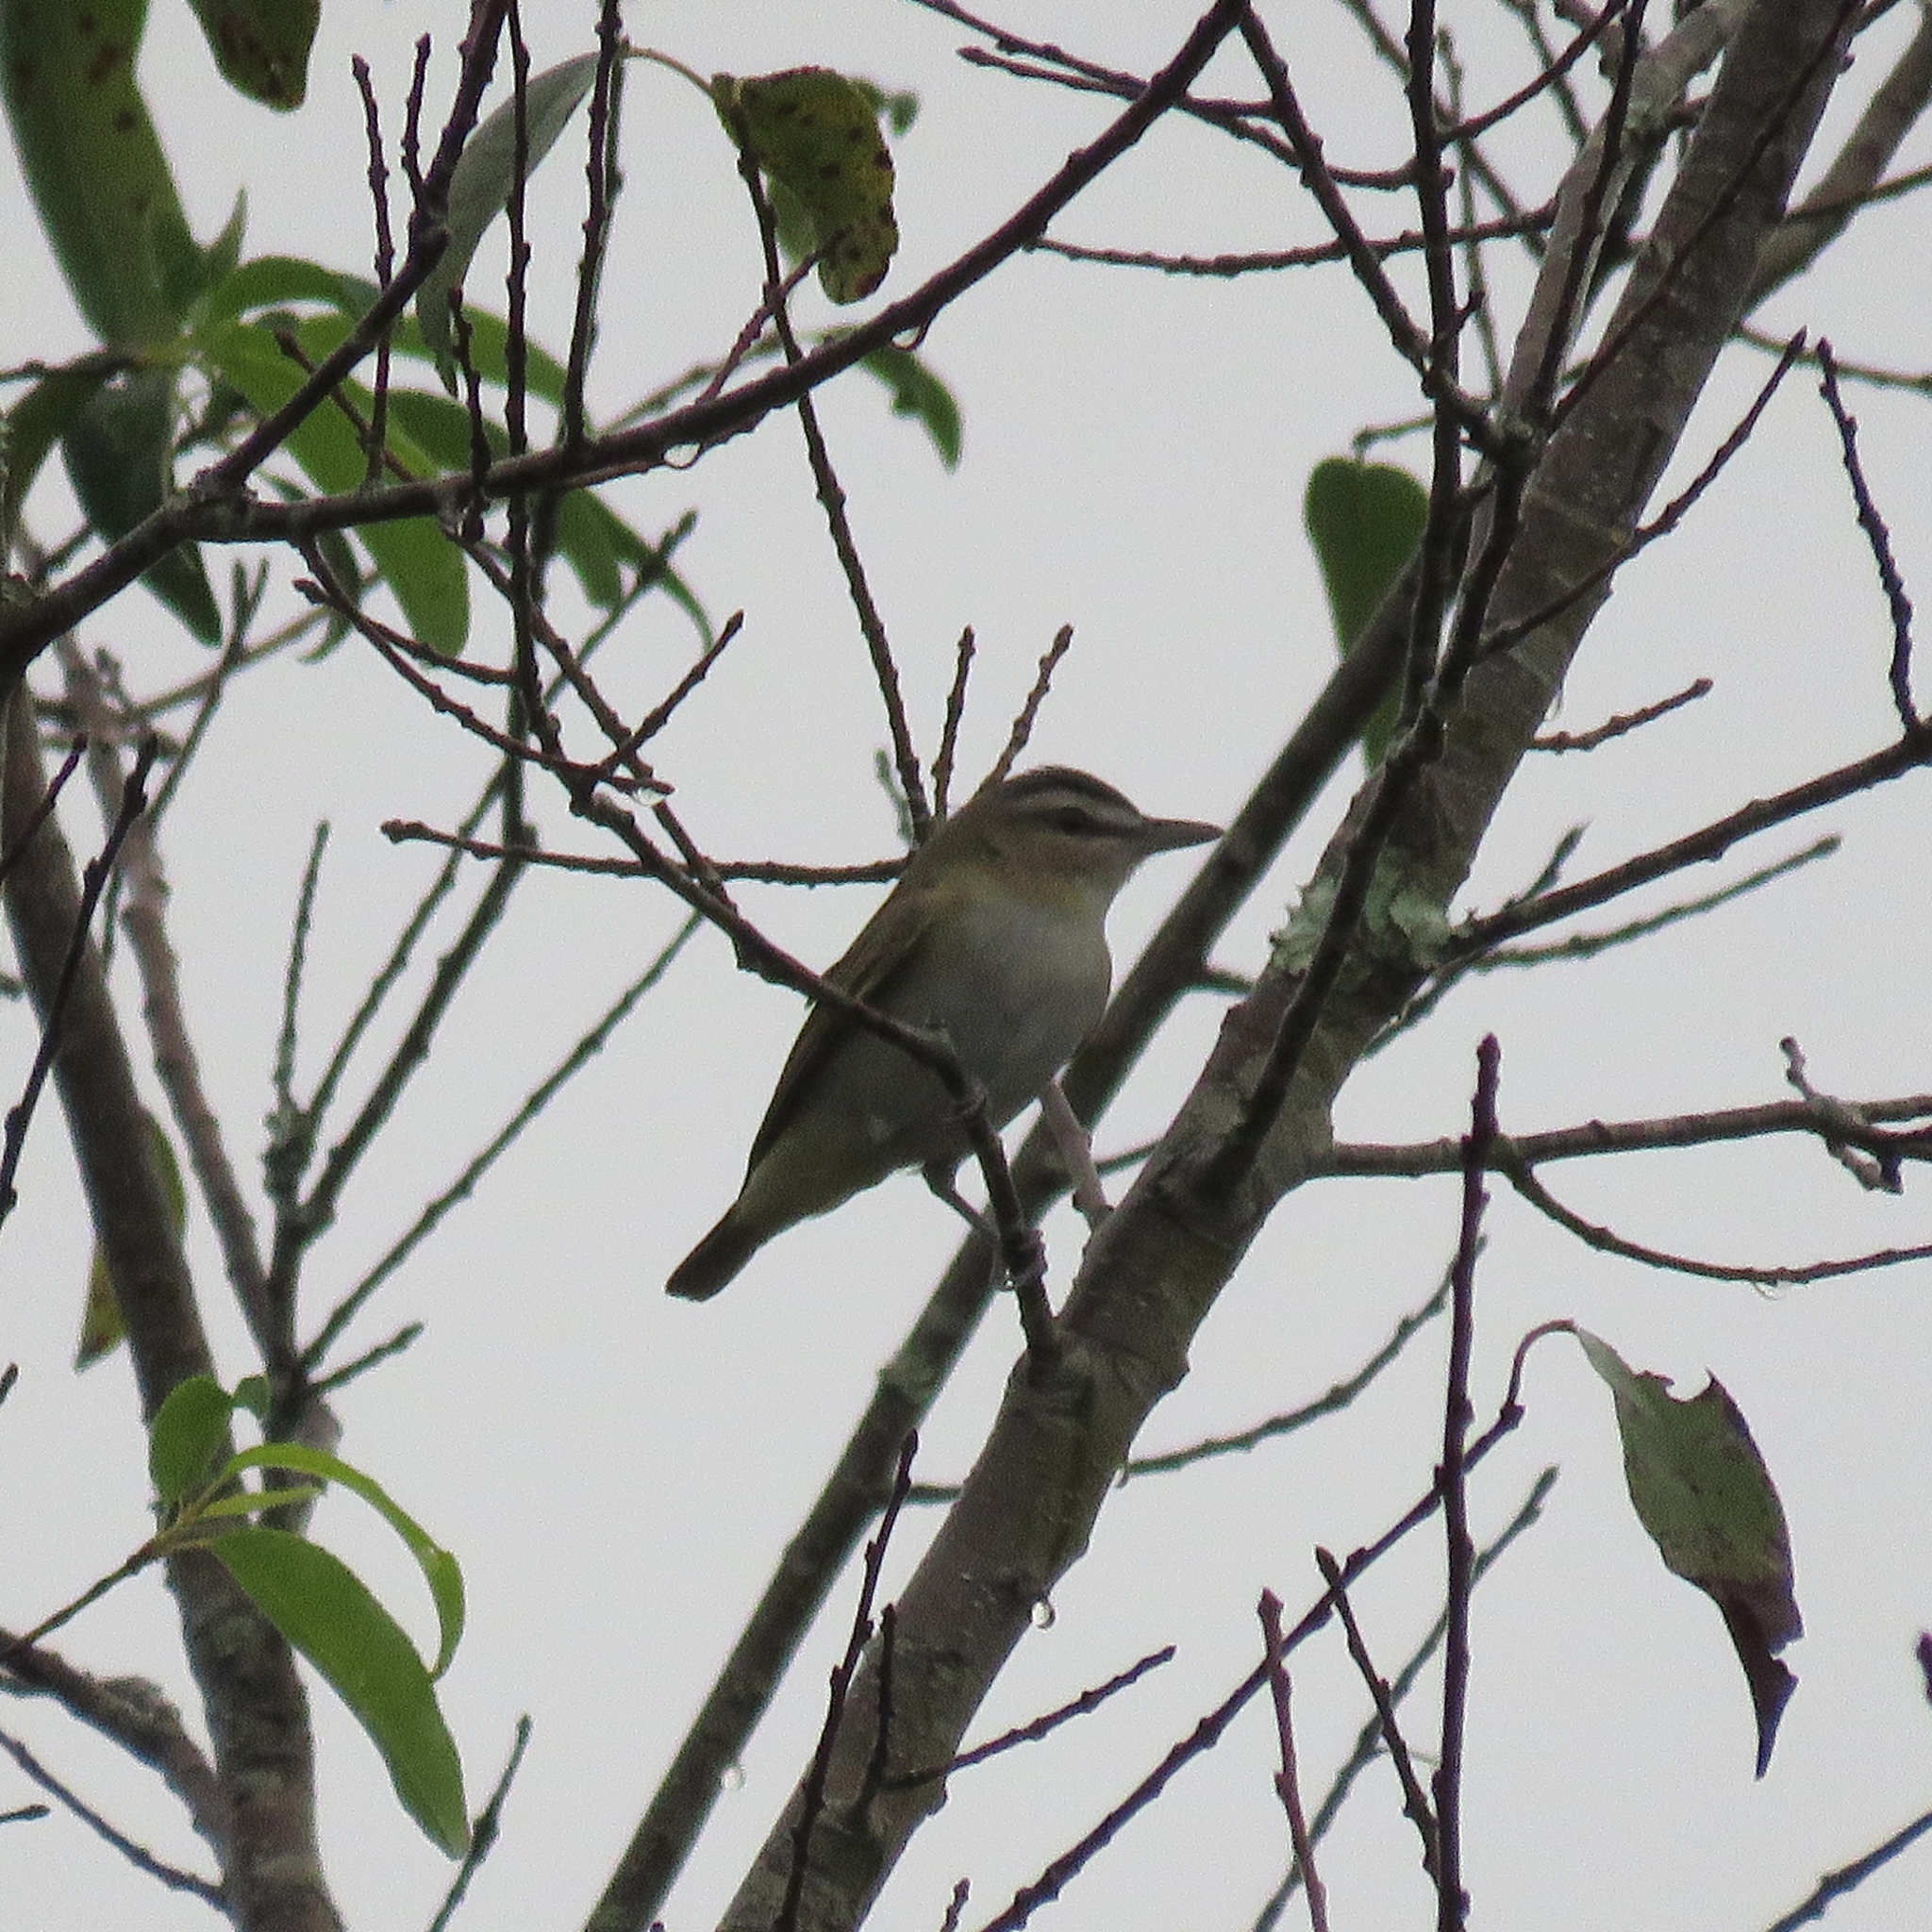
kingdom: Animalia
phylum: Chordata
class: Aves
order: Passeriformes
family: Vireonidae
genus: Vireo
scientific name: Vireo olivaceus
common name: Red-eyed vireo
